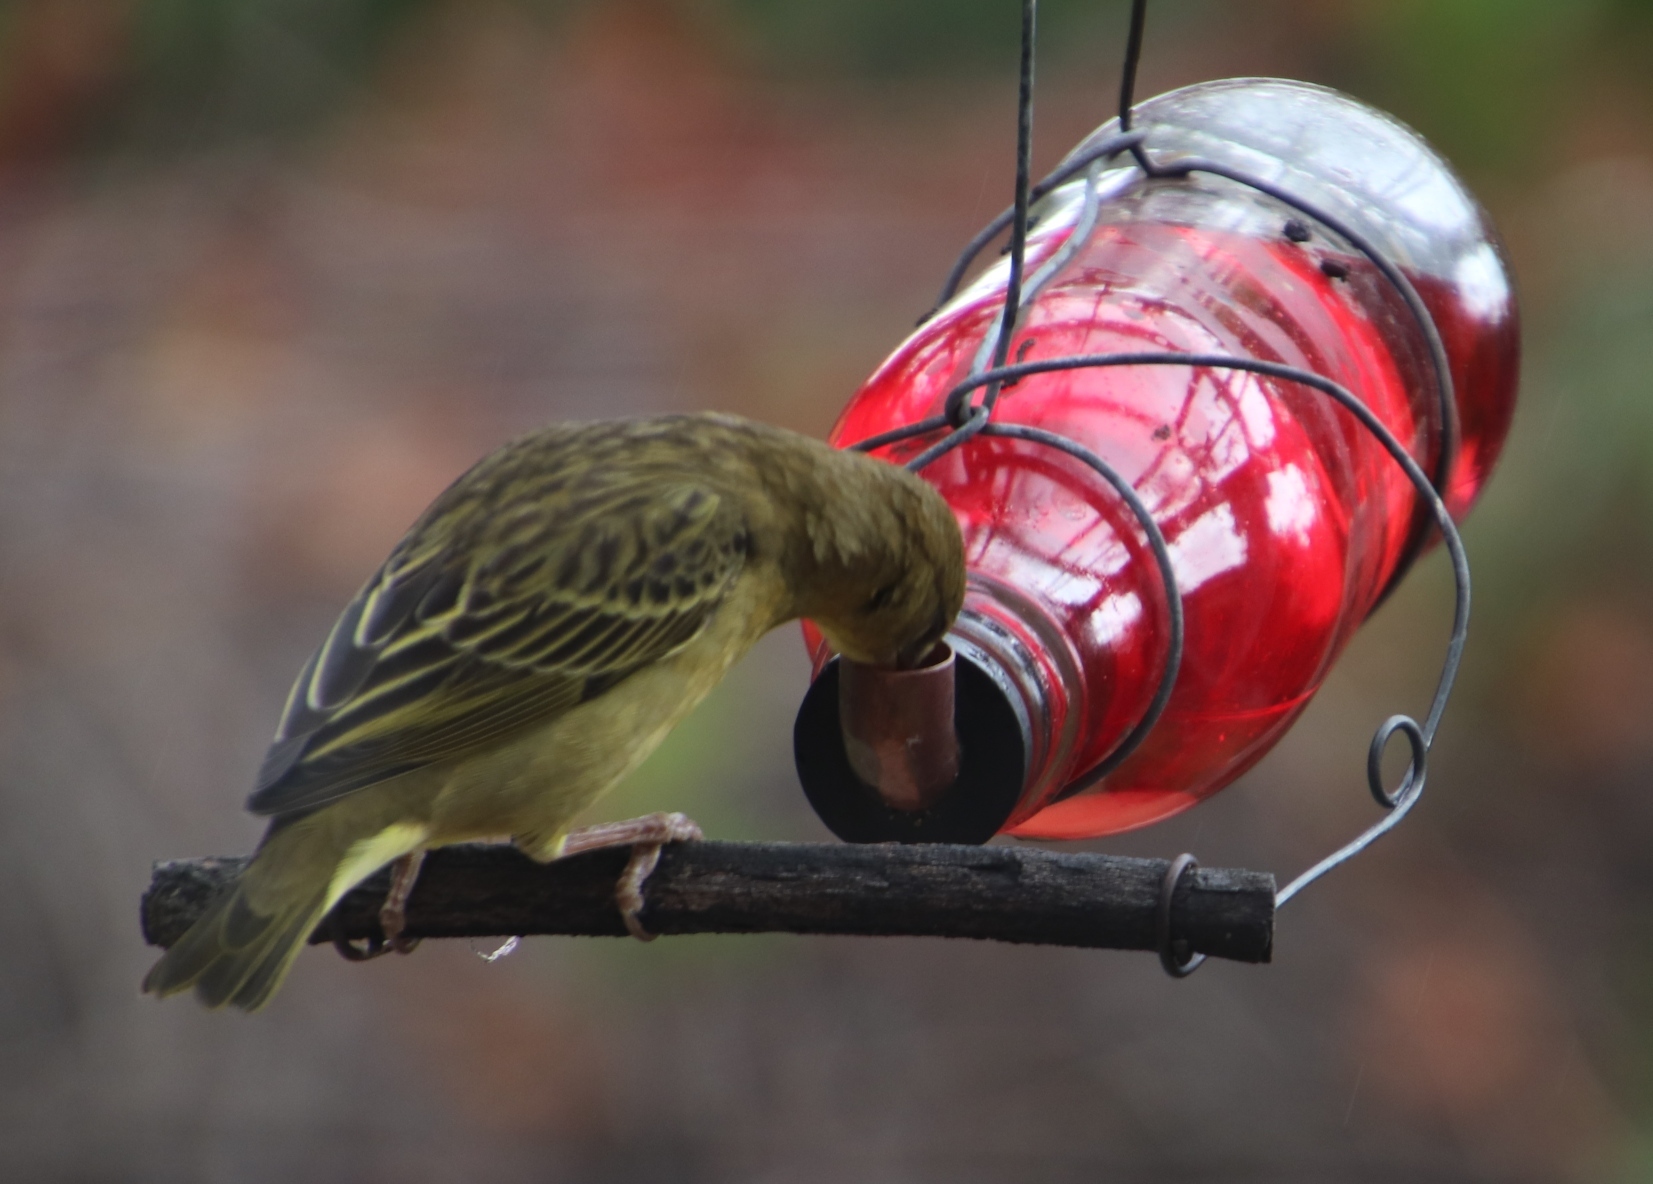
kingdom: Animalia
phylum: Chordata
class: Aves
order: Passeriformes
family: Ploceidae
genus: Ploceus
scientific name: Ploceus capensis
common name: Cape weaver
